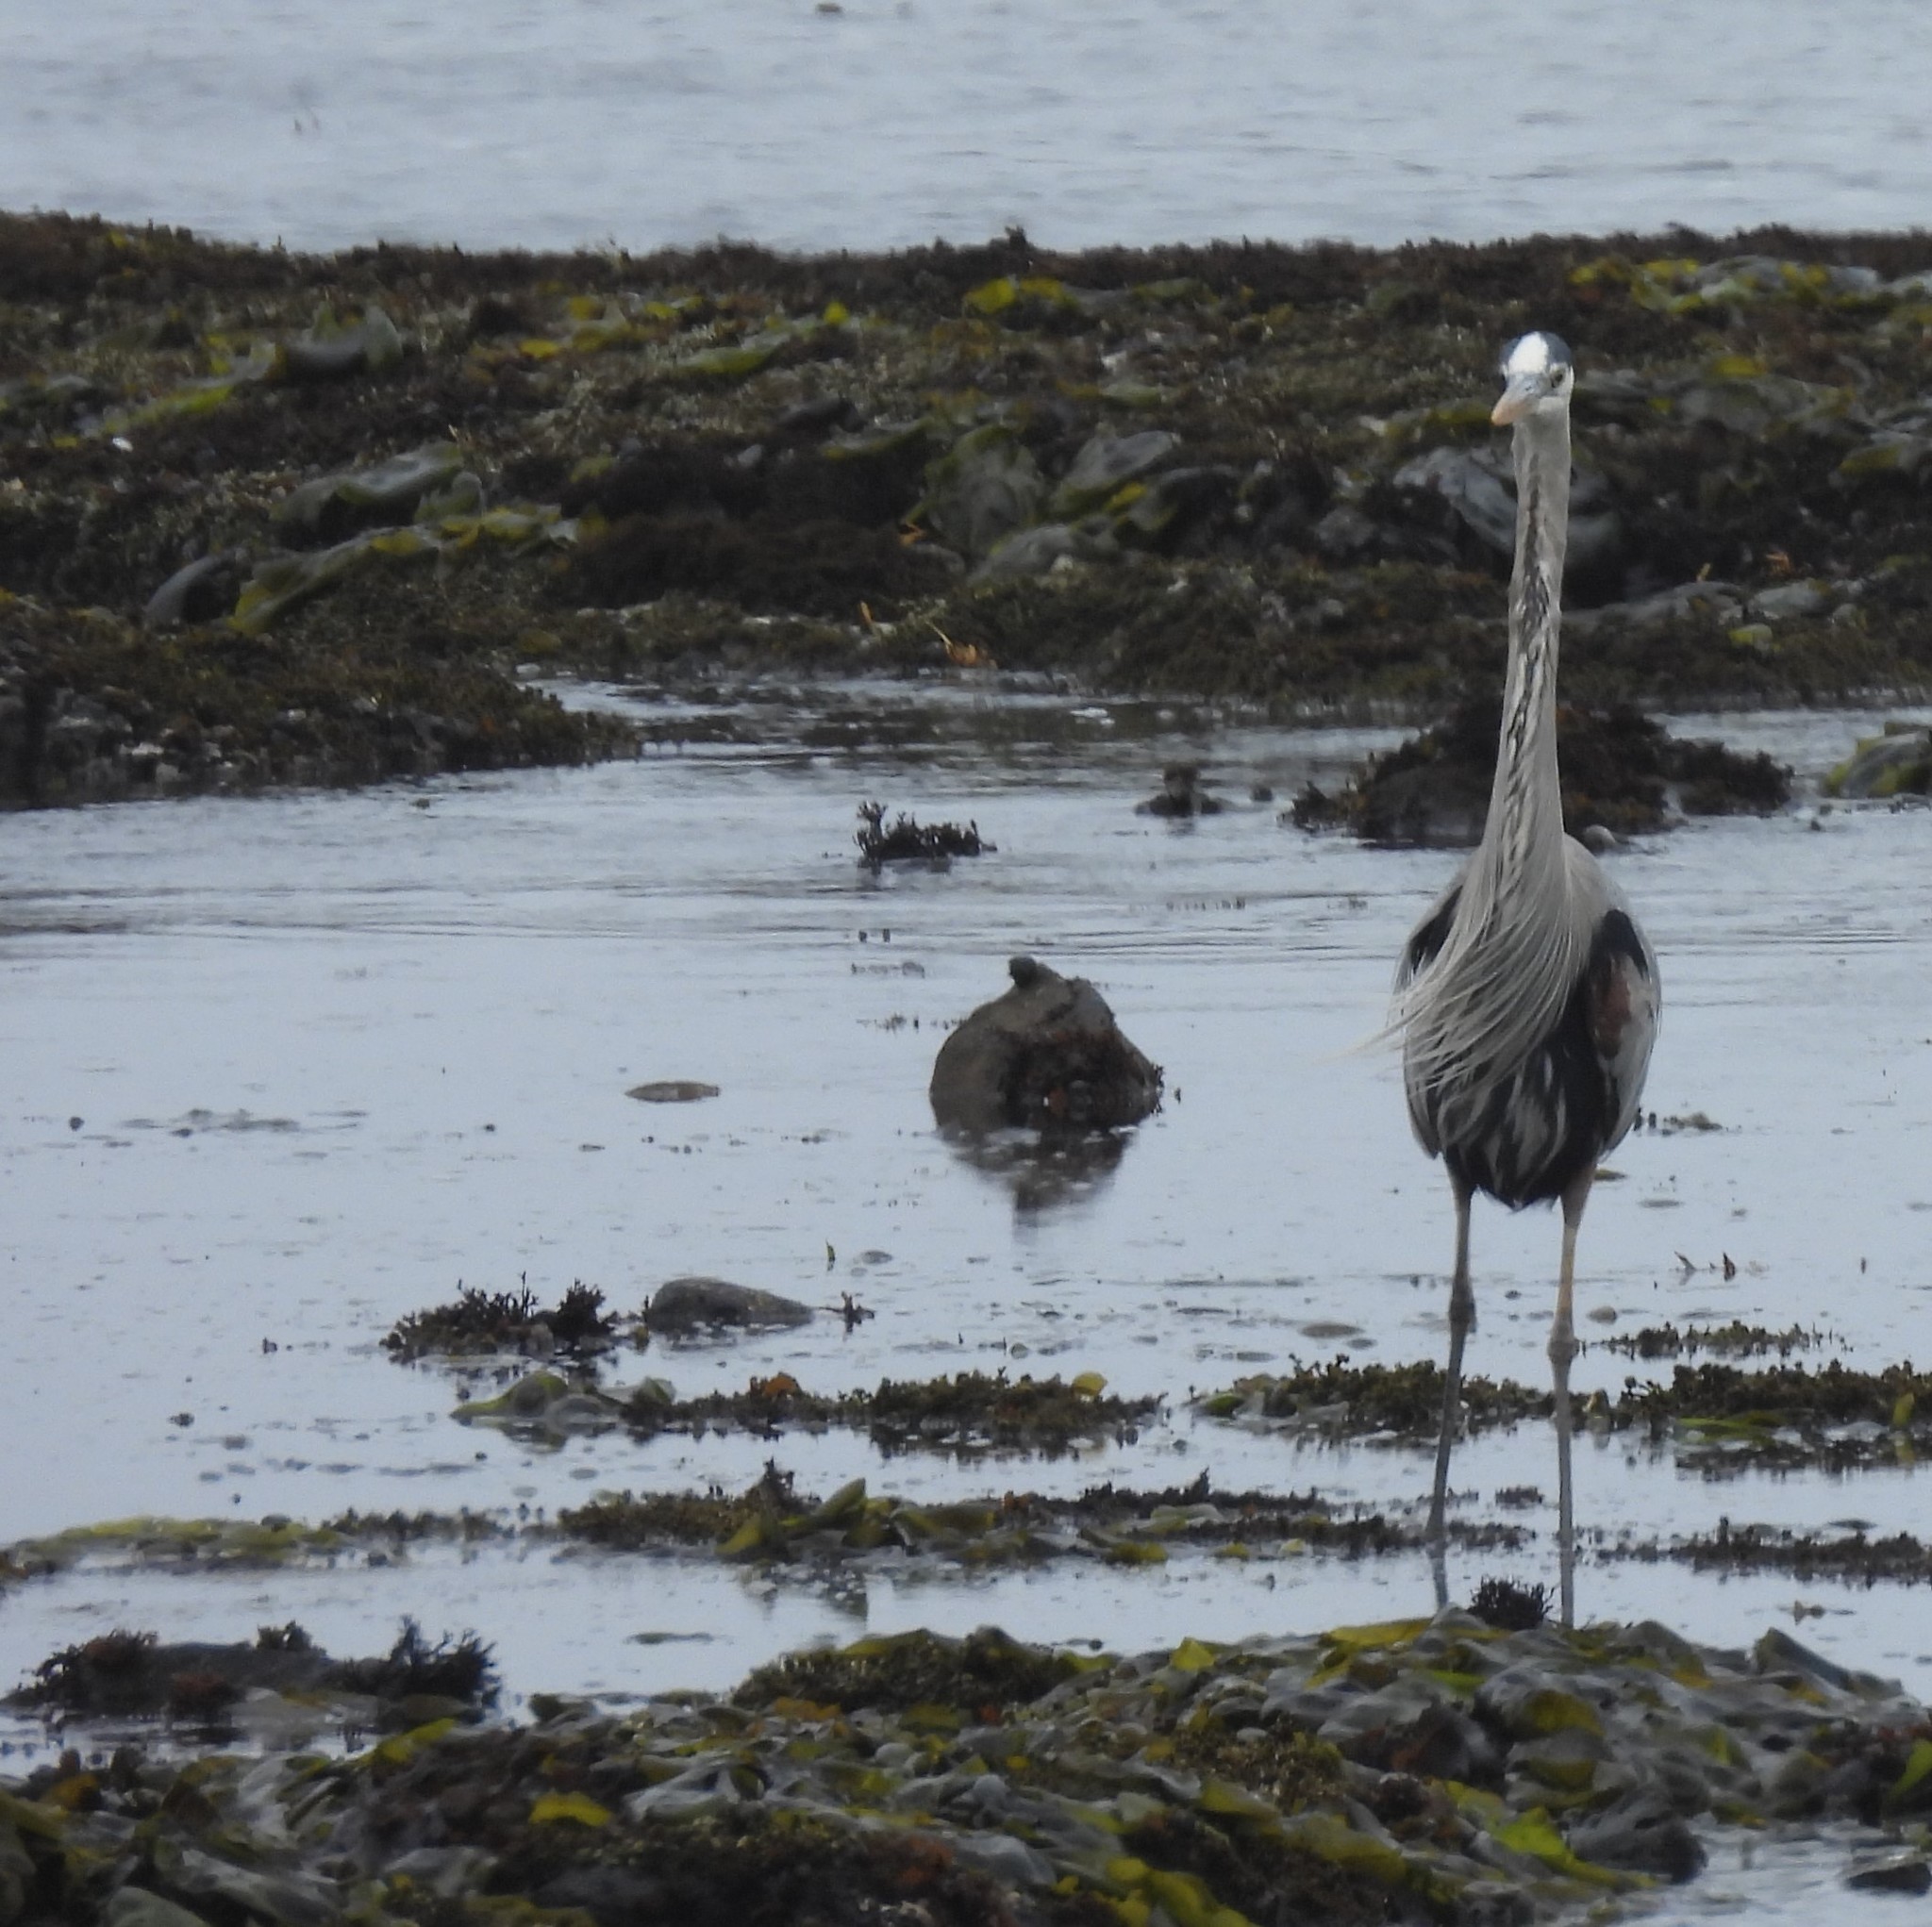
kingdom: Animalia
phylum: Chordata
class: Aves
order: Pelecaniformes
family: Ardeidae
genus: Ardea
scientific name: Ardea herodias
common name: Great blue heron
